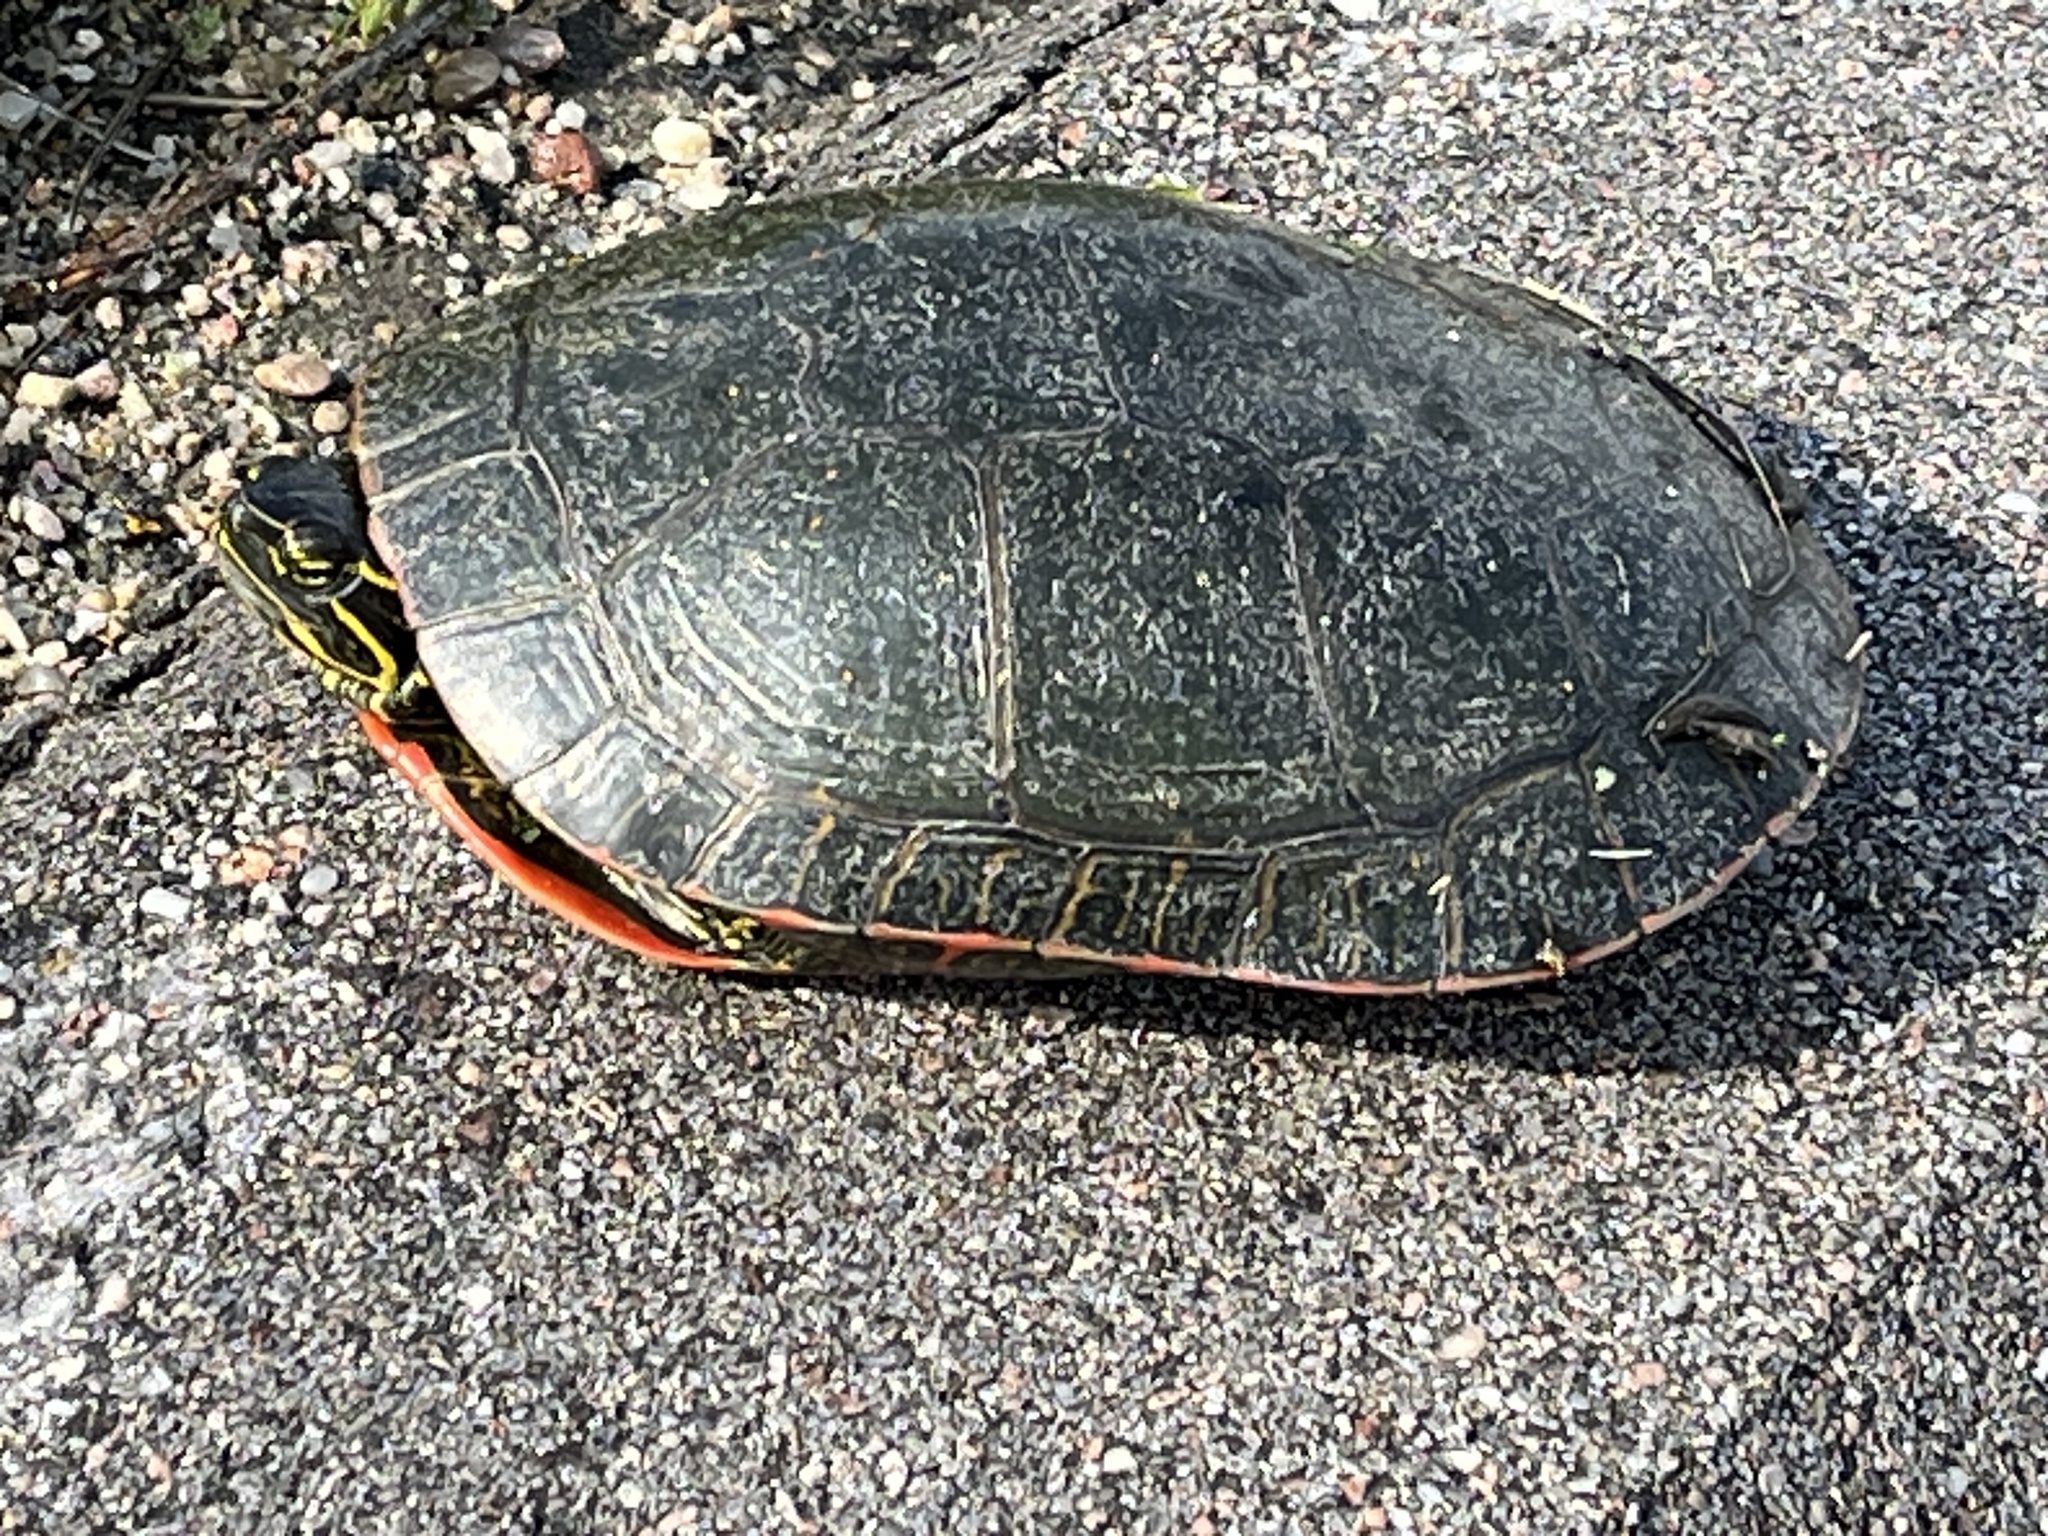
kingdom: Animalia
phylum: Chordata
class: Testudines
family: Emydidae
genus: Chrysemys
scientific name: Chrysemys picta
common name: Painted turtle
